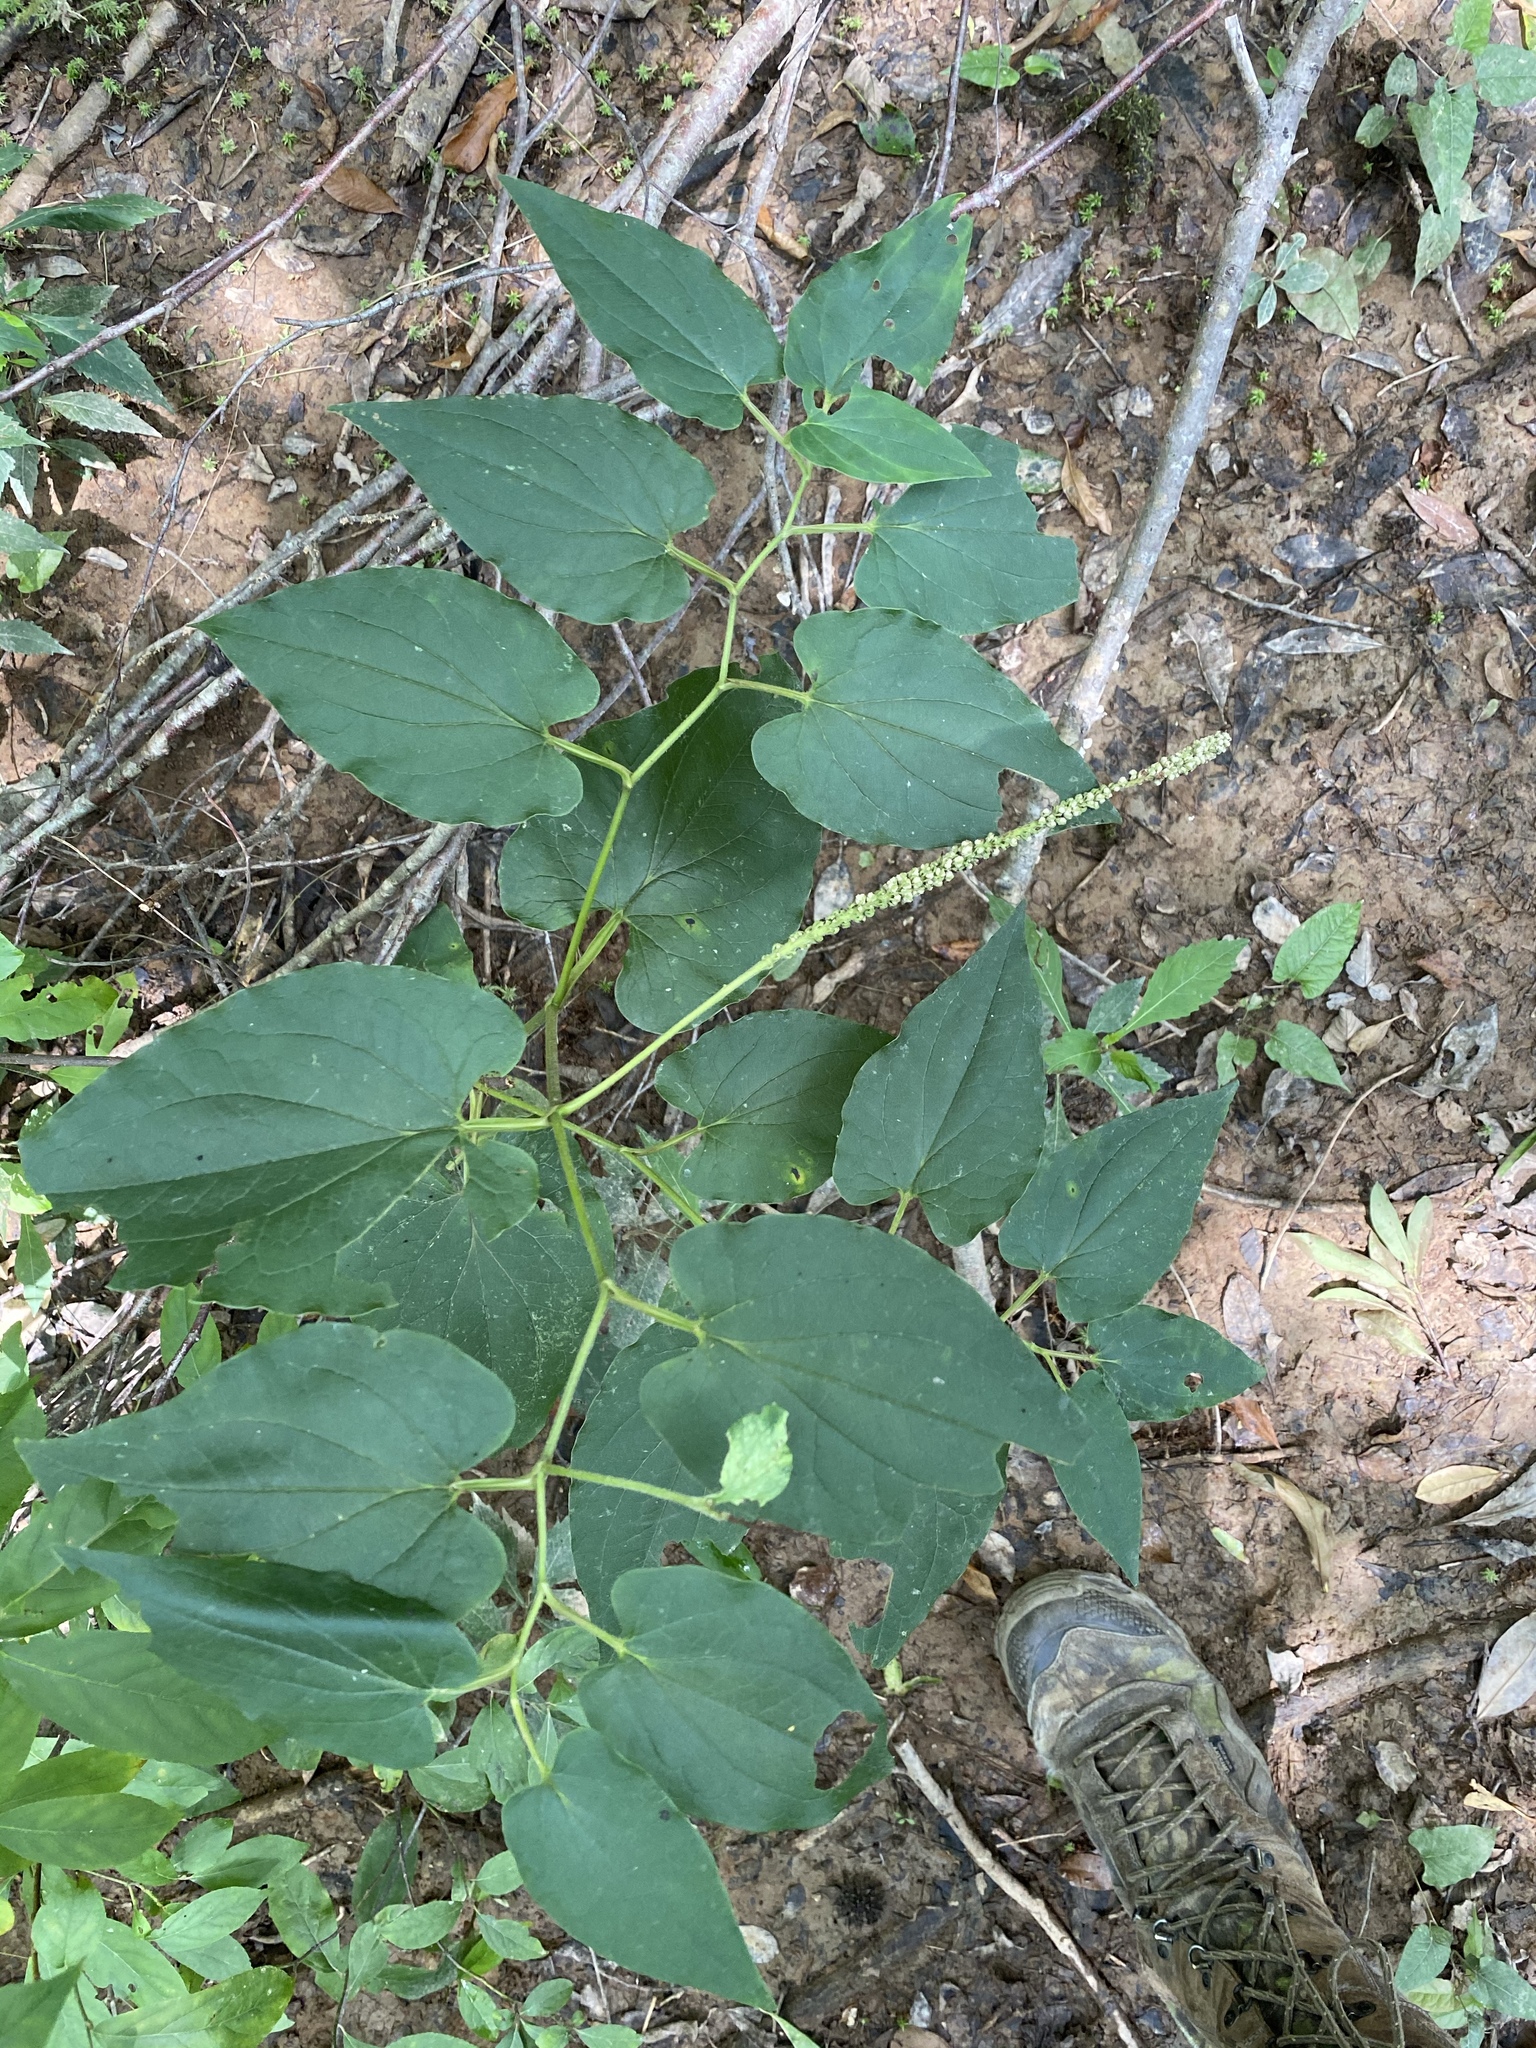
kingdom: Plantae
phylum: Tracheophyta
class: Magnoliopsida
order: Piperales
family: Saururaceae
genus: Saururus
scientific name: Saururus cernuus
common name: Lizard's-tail
